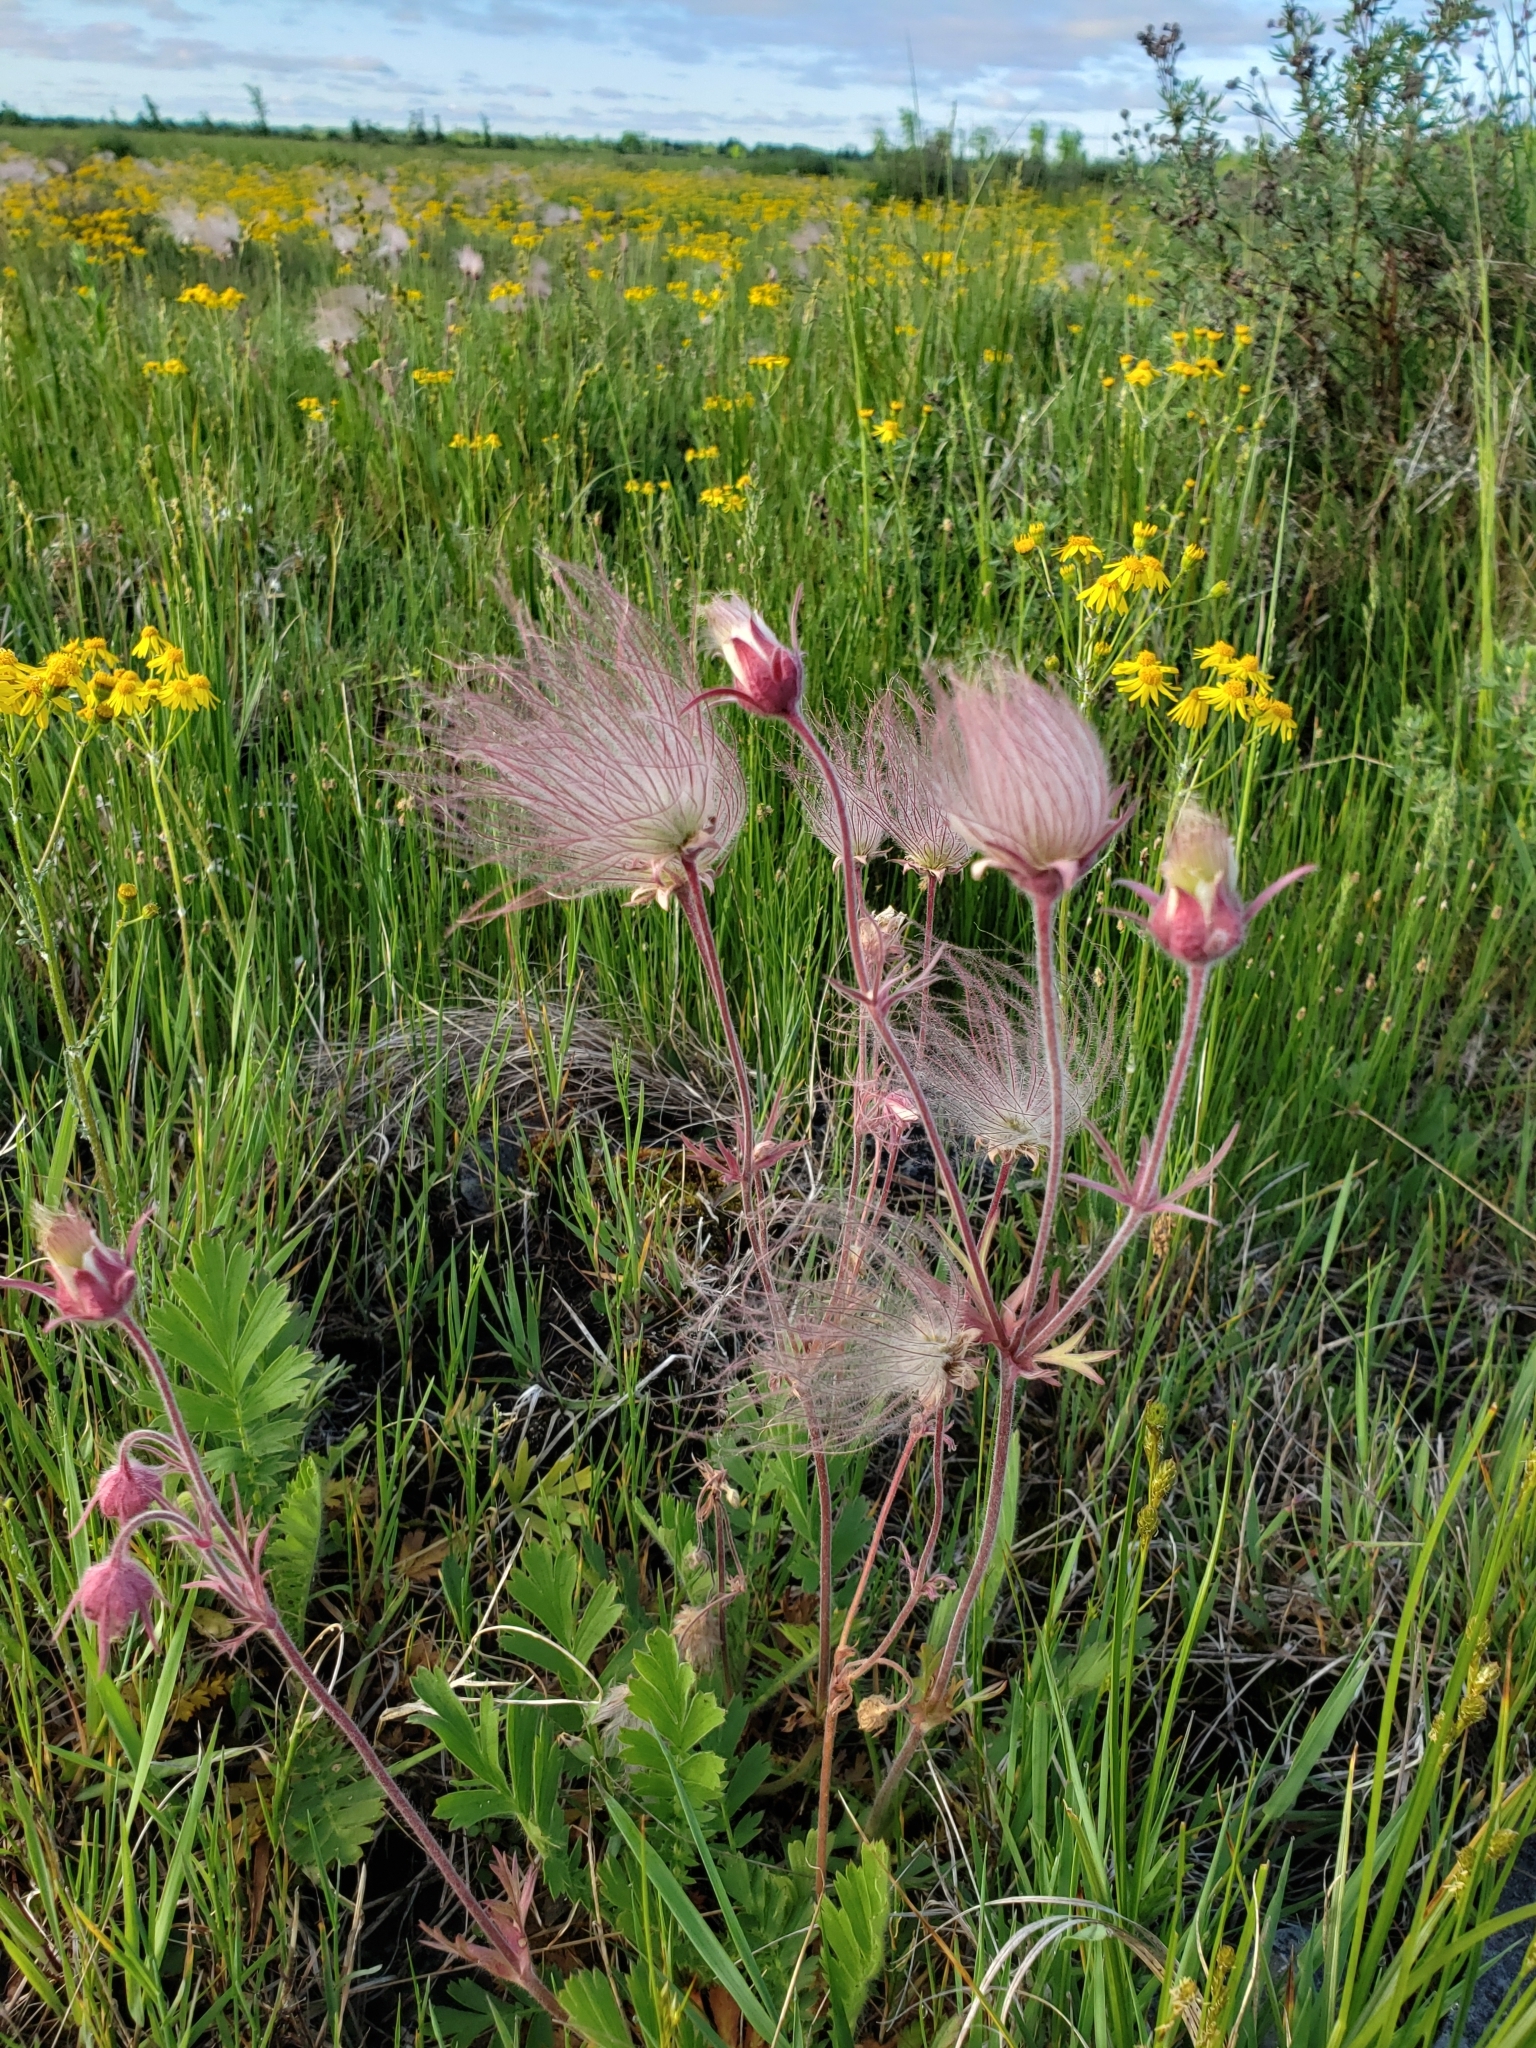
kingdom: Plantae
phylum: Tracheophyta
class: Magnoliopsida
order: Rosales
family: Rosaceae
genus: Geum
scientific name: Geum triflorum
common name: Old man's whiskers
